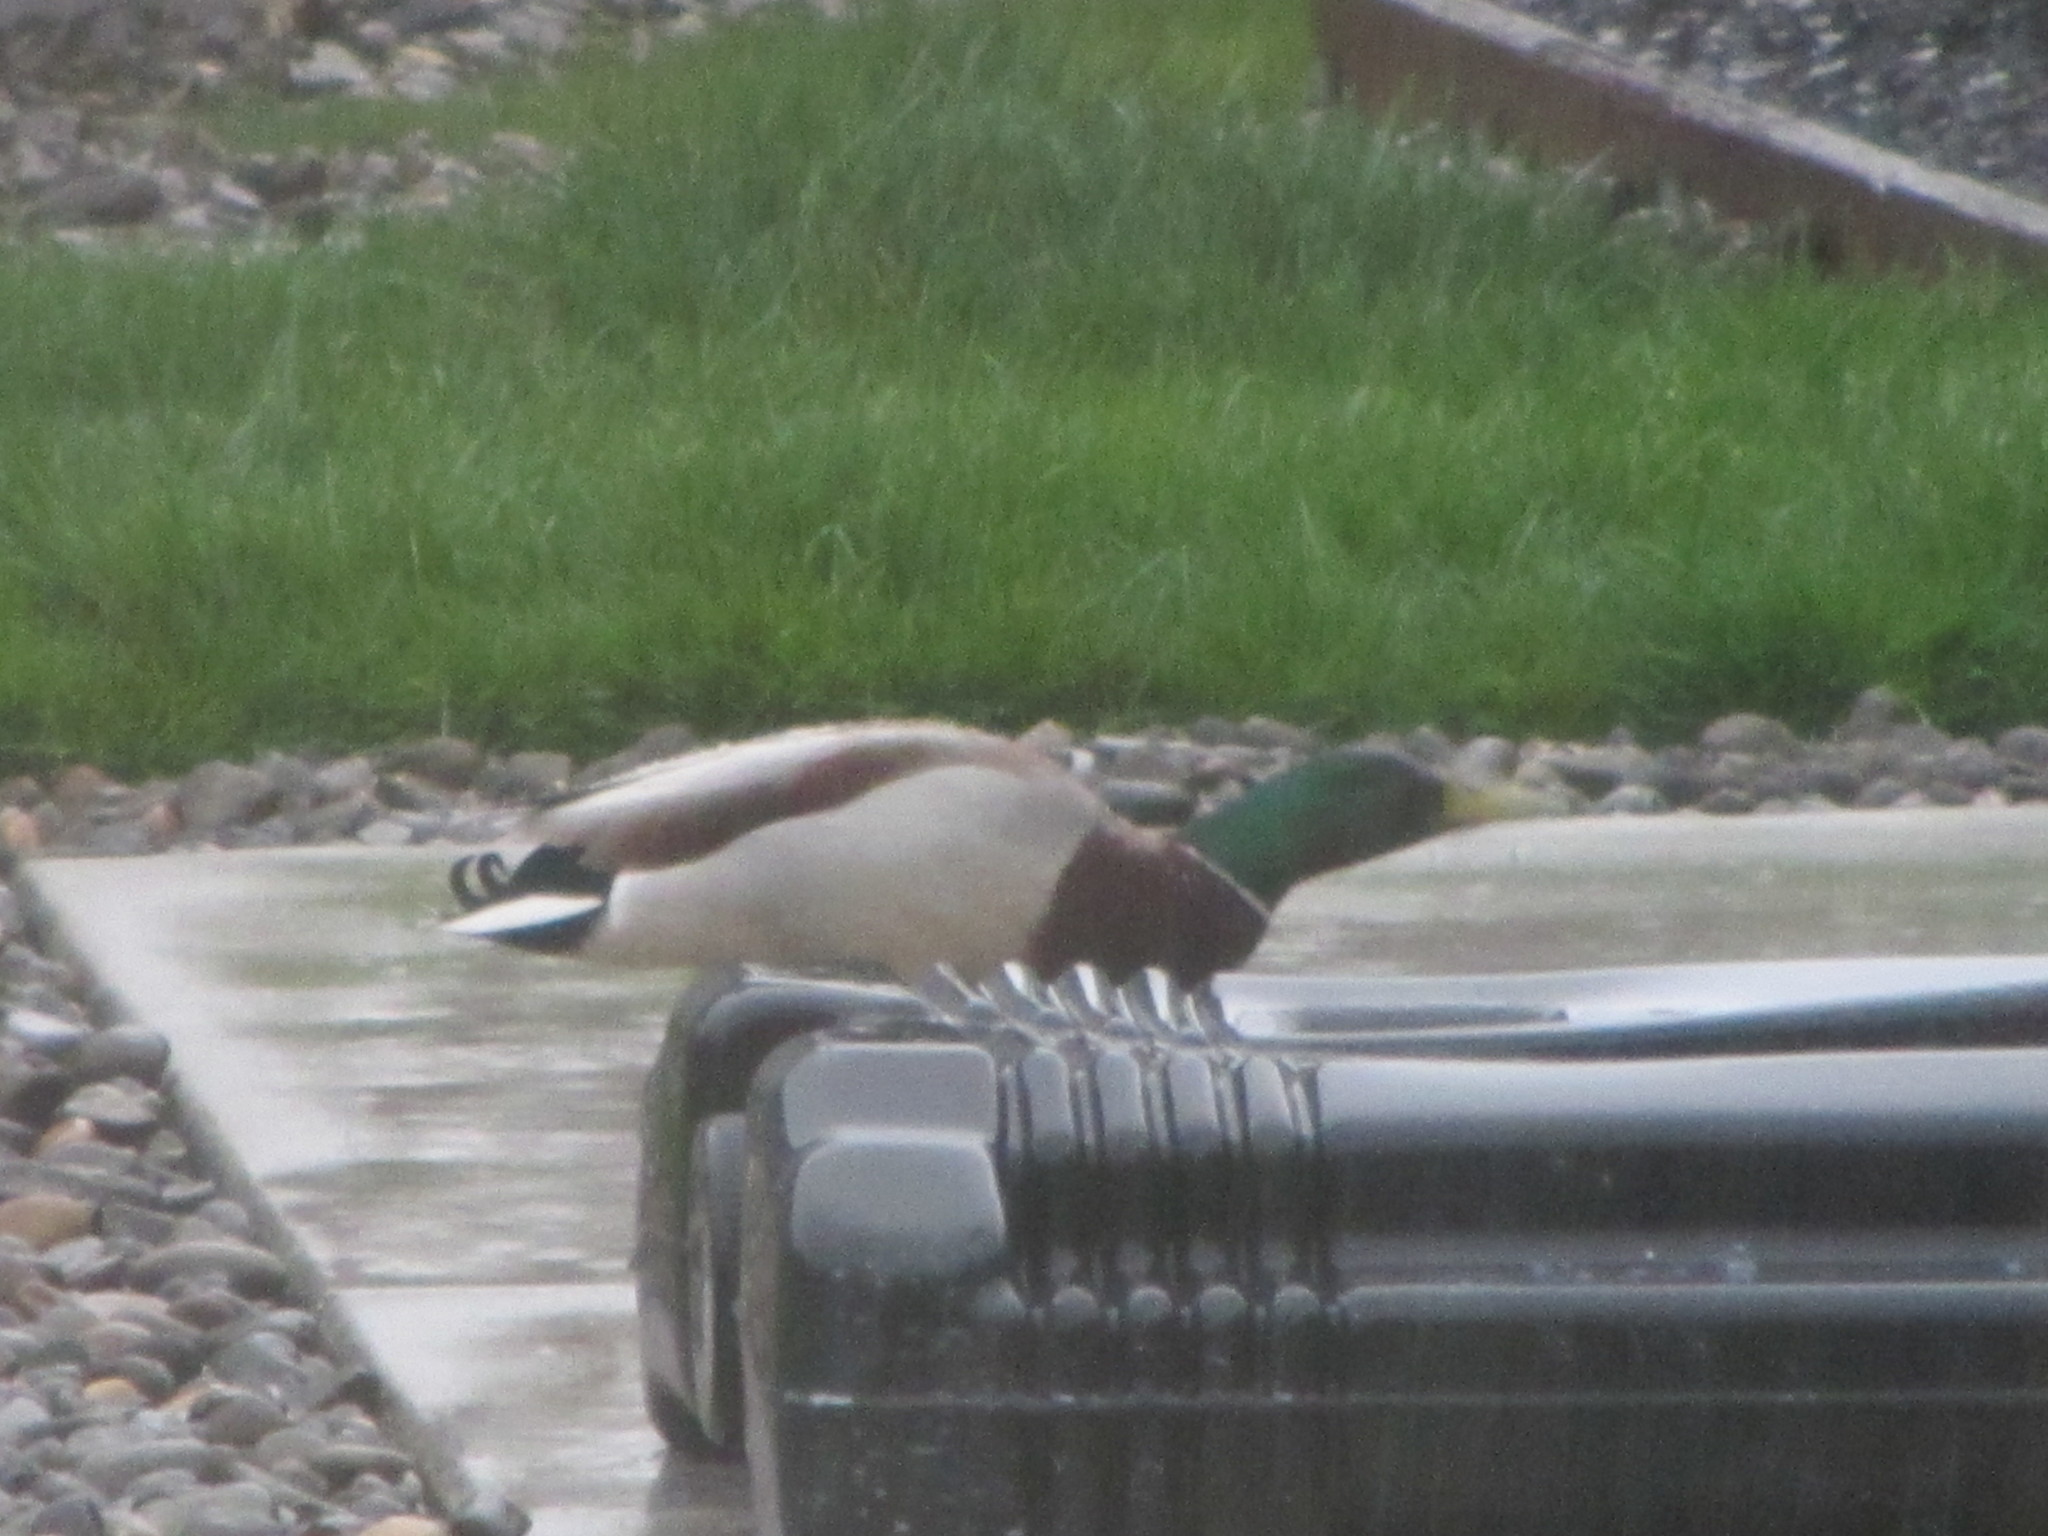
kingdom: Animalia
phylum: Chordata
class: Aves
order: Anseriformes
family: Anatidae
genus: Anas
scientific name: Anas platyrhynchos
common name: Mallard
